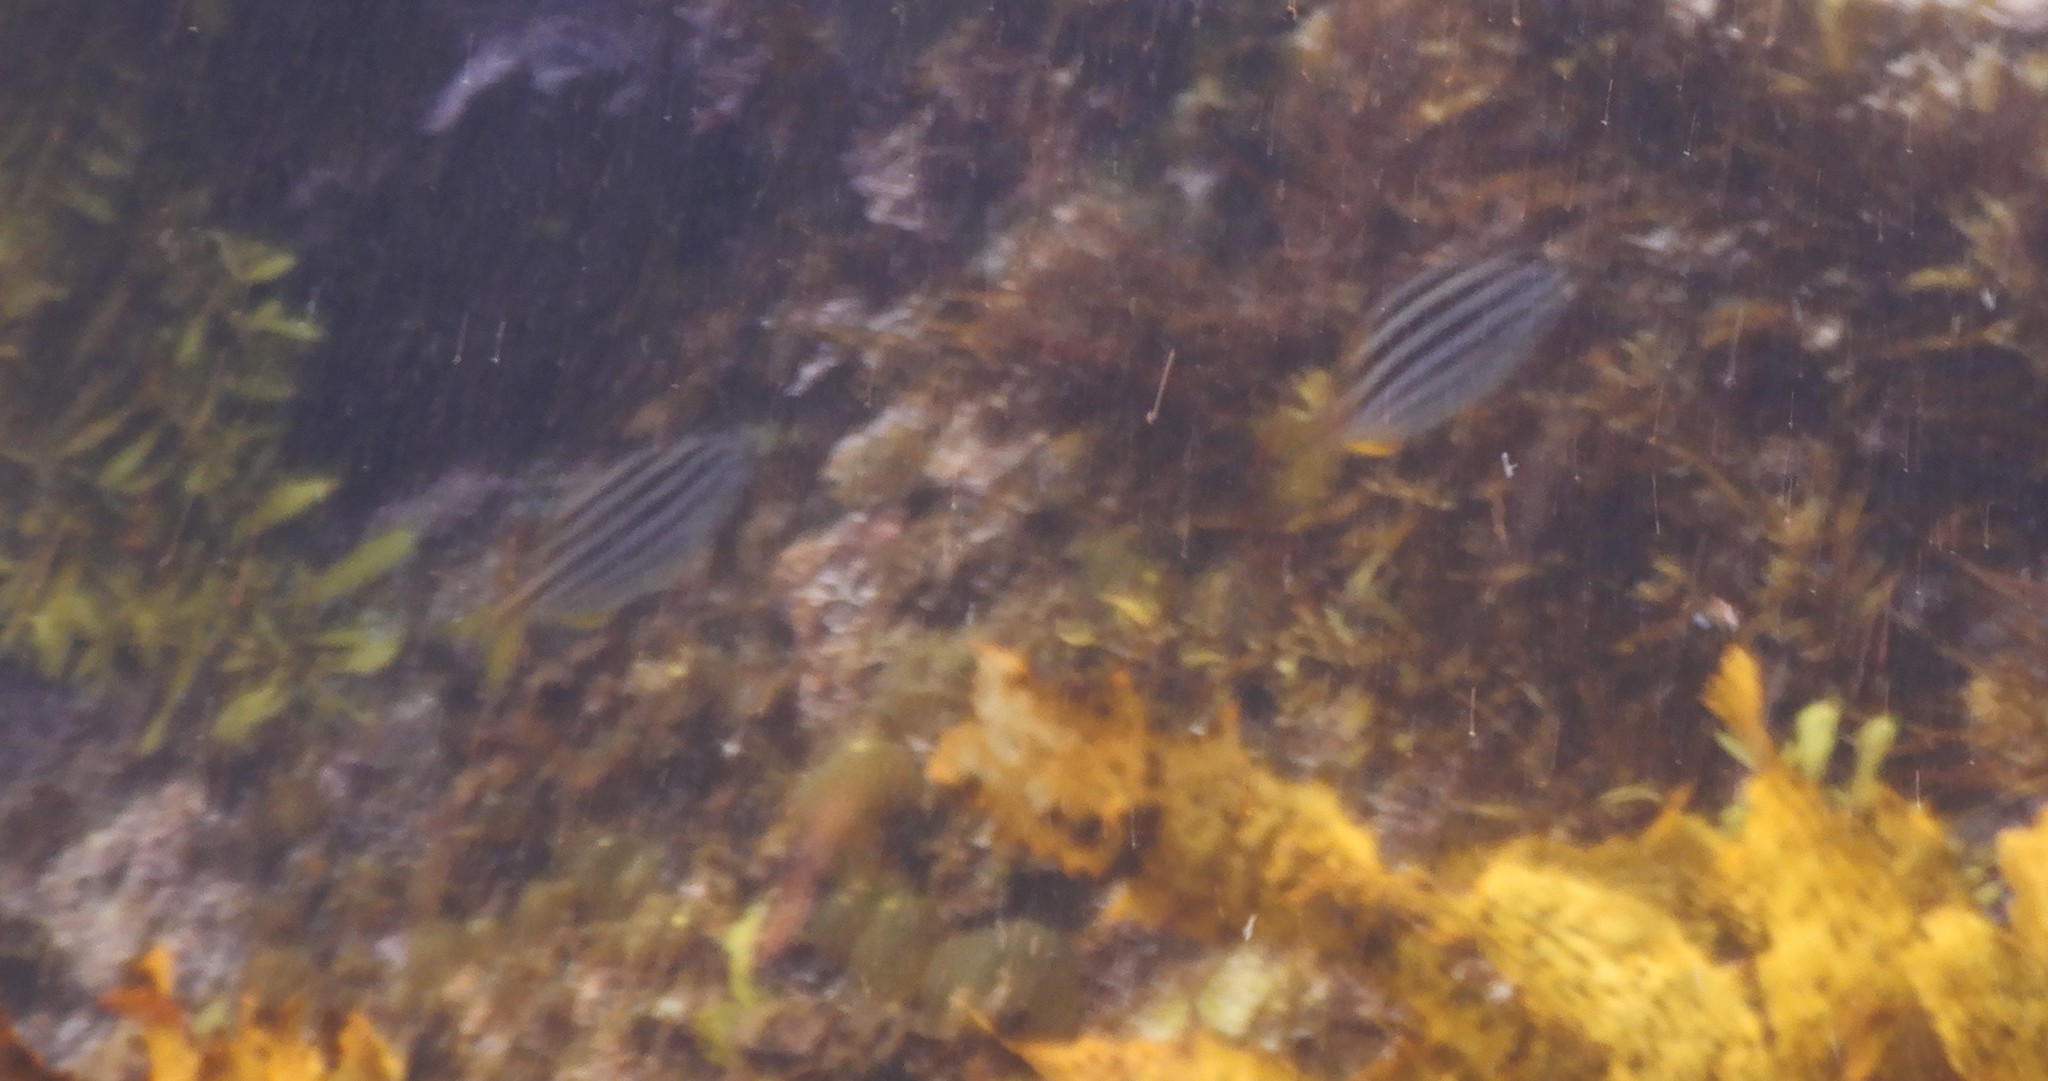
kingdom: Animalia
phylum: Chordata
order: Perciformes
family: Kyphosidae
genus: Atypichthys
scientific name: Atypichthys strigatus
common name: Australian mado
